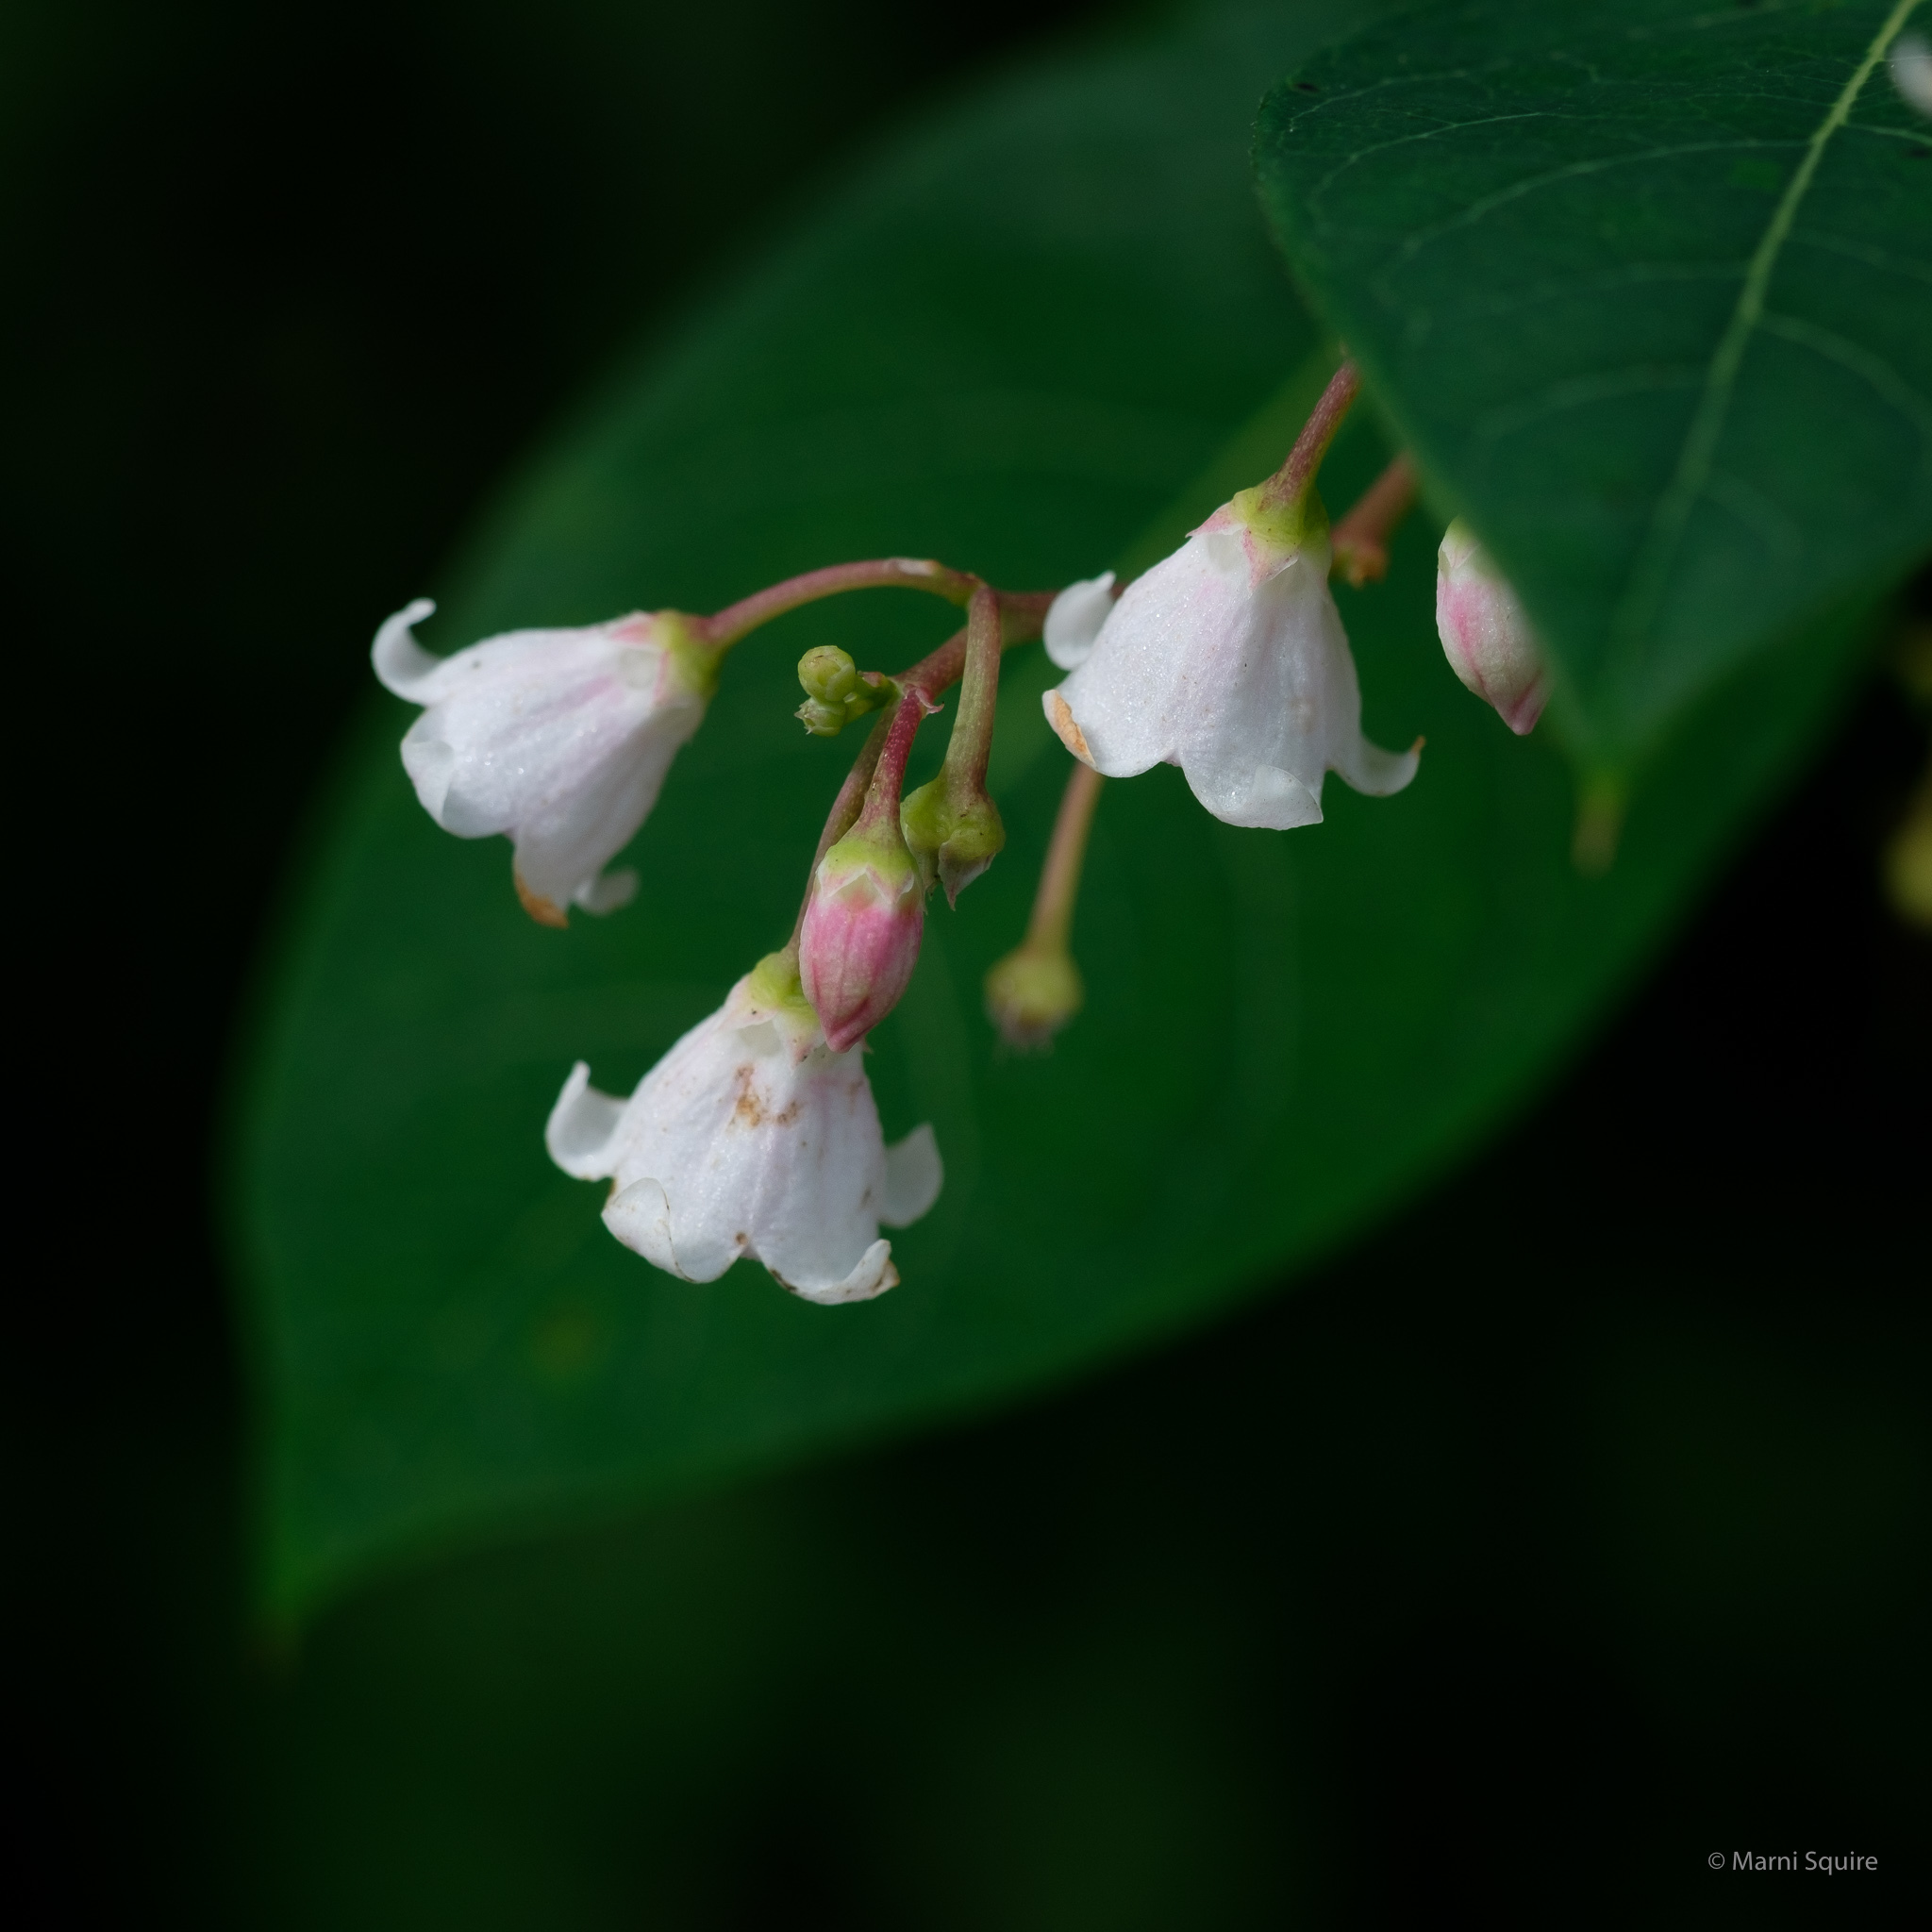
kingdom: Plantae
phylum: Tracheophyta
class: Magnoliopsida
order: Gentianales
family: Apocynaceae
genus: Apocynum
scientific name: Apocynum androsaemifolium
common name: Spreading dogbane
